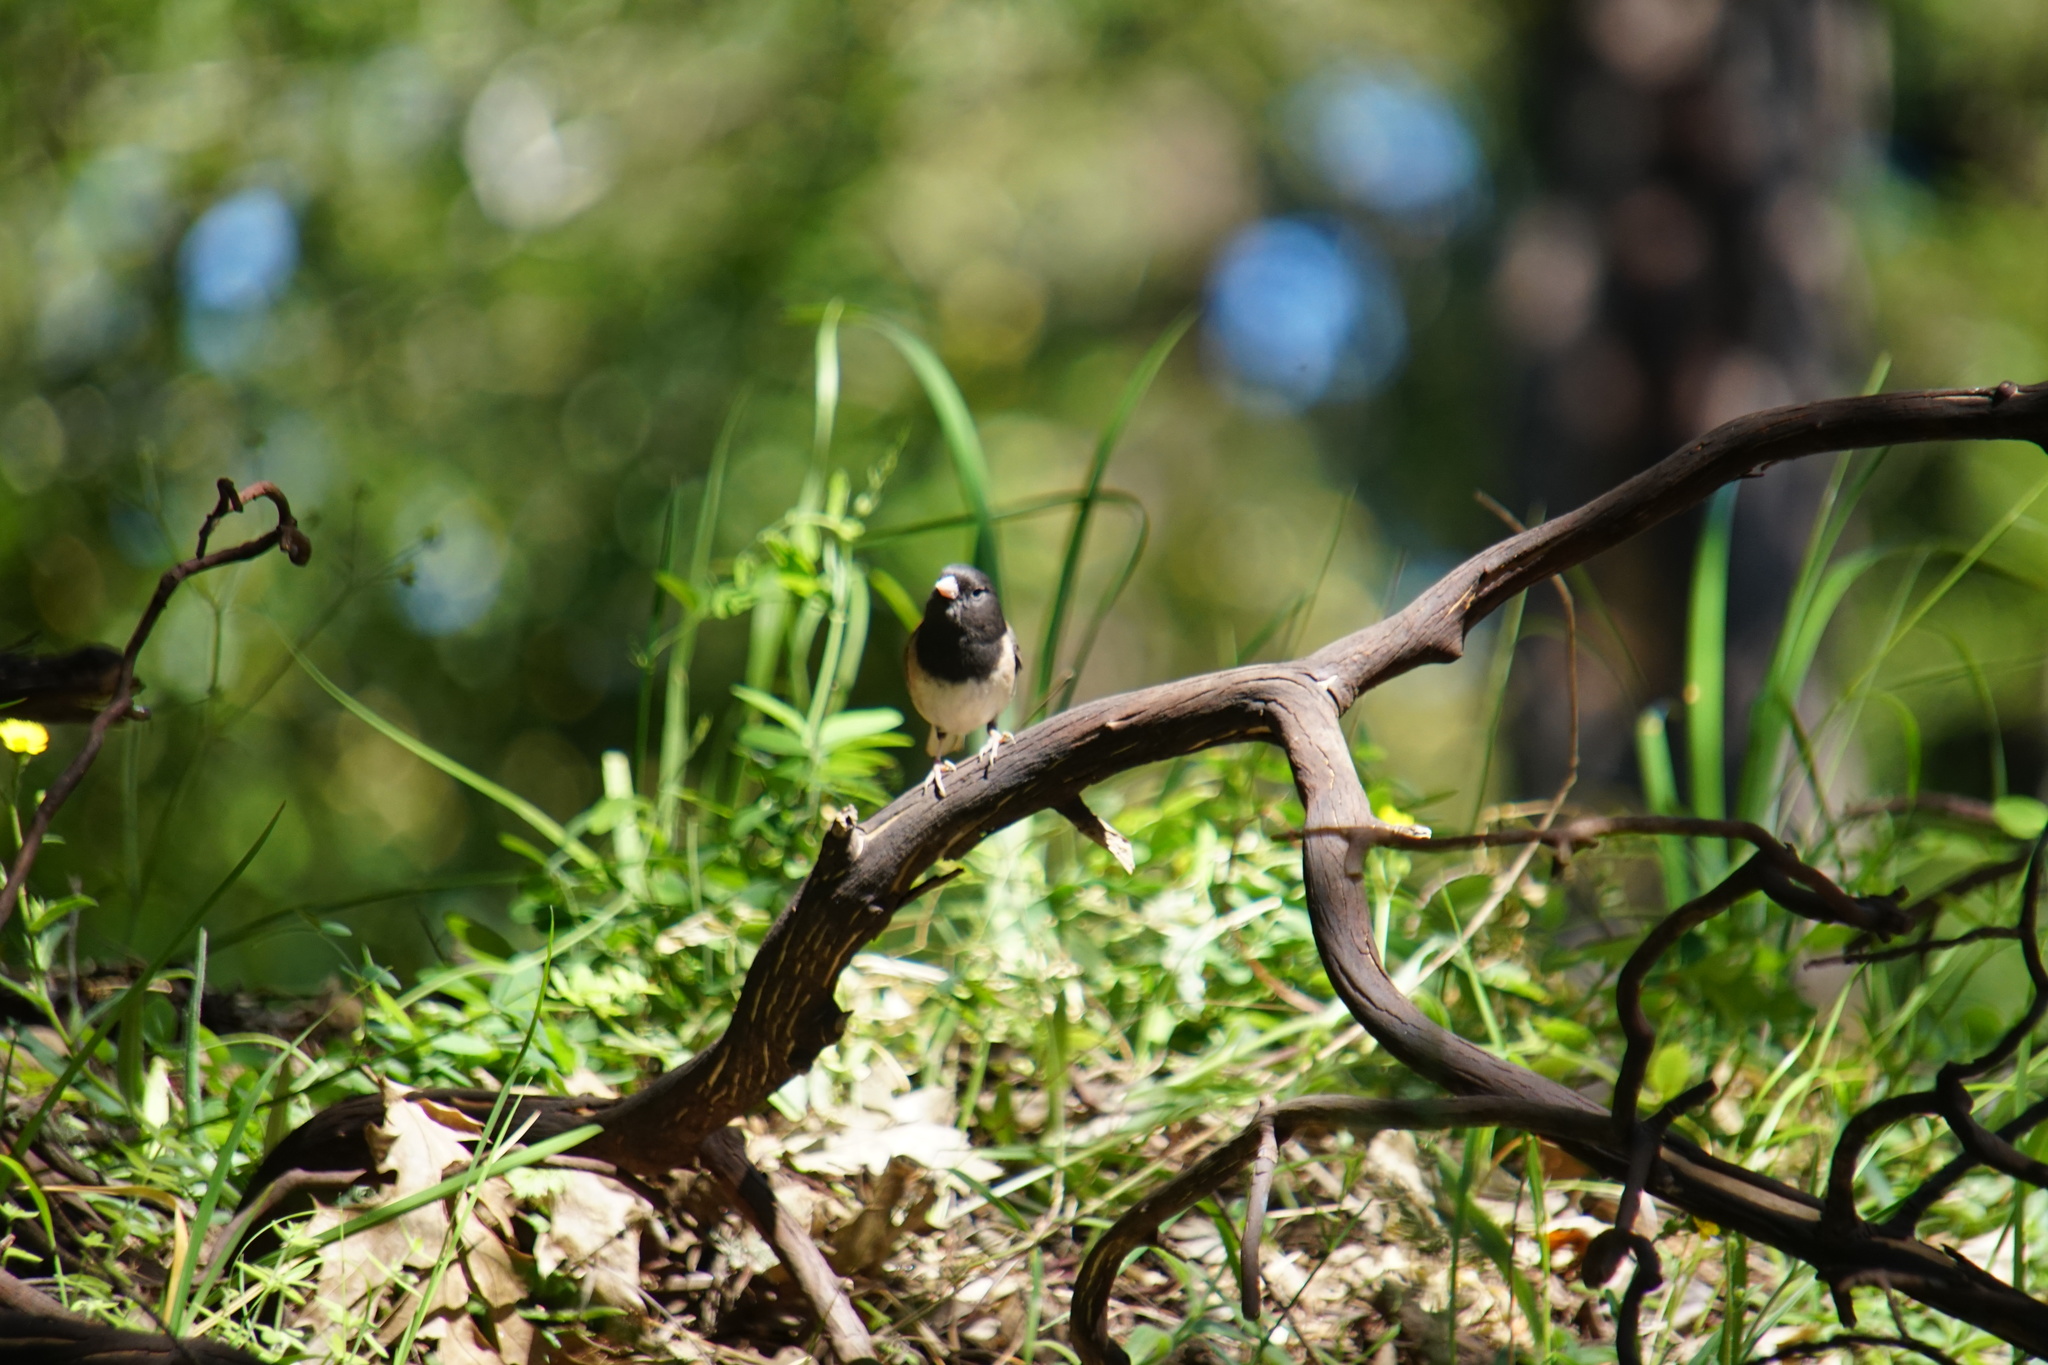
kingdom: Animalia
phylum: Chordata
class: Aves
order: Passeriformes
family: Passerellidae
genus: Junco
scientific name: Junco hyemalis
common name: Dark-eyed junco
